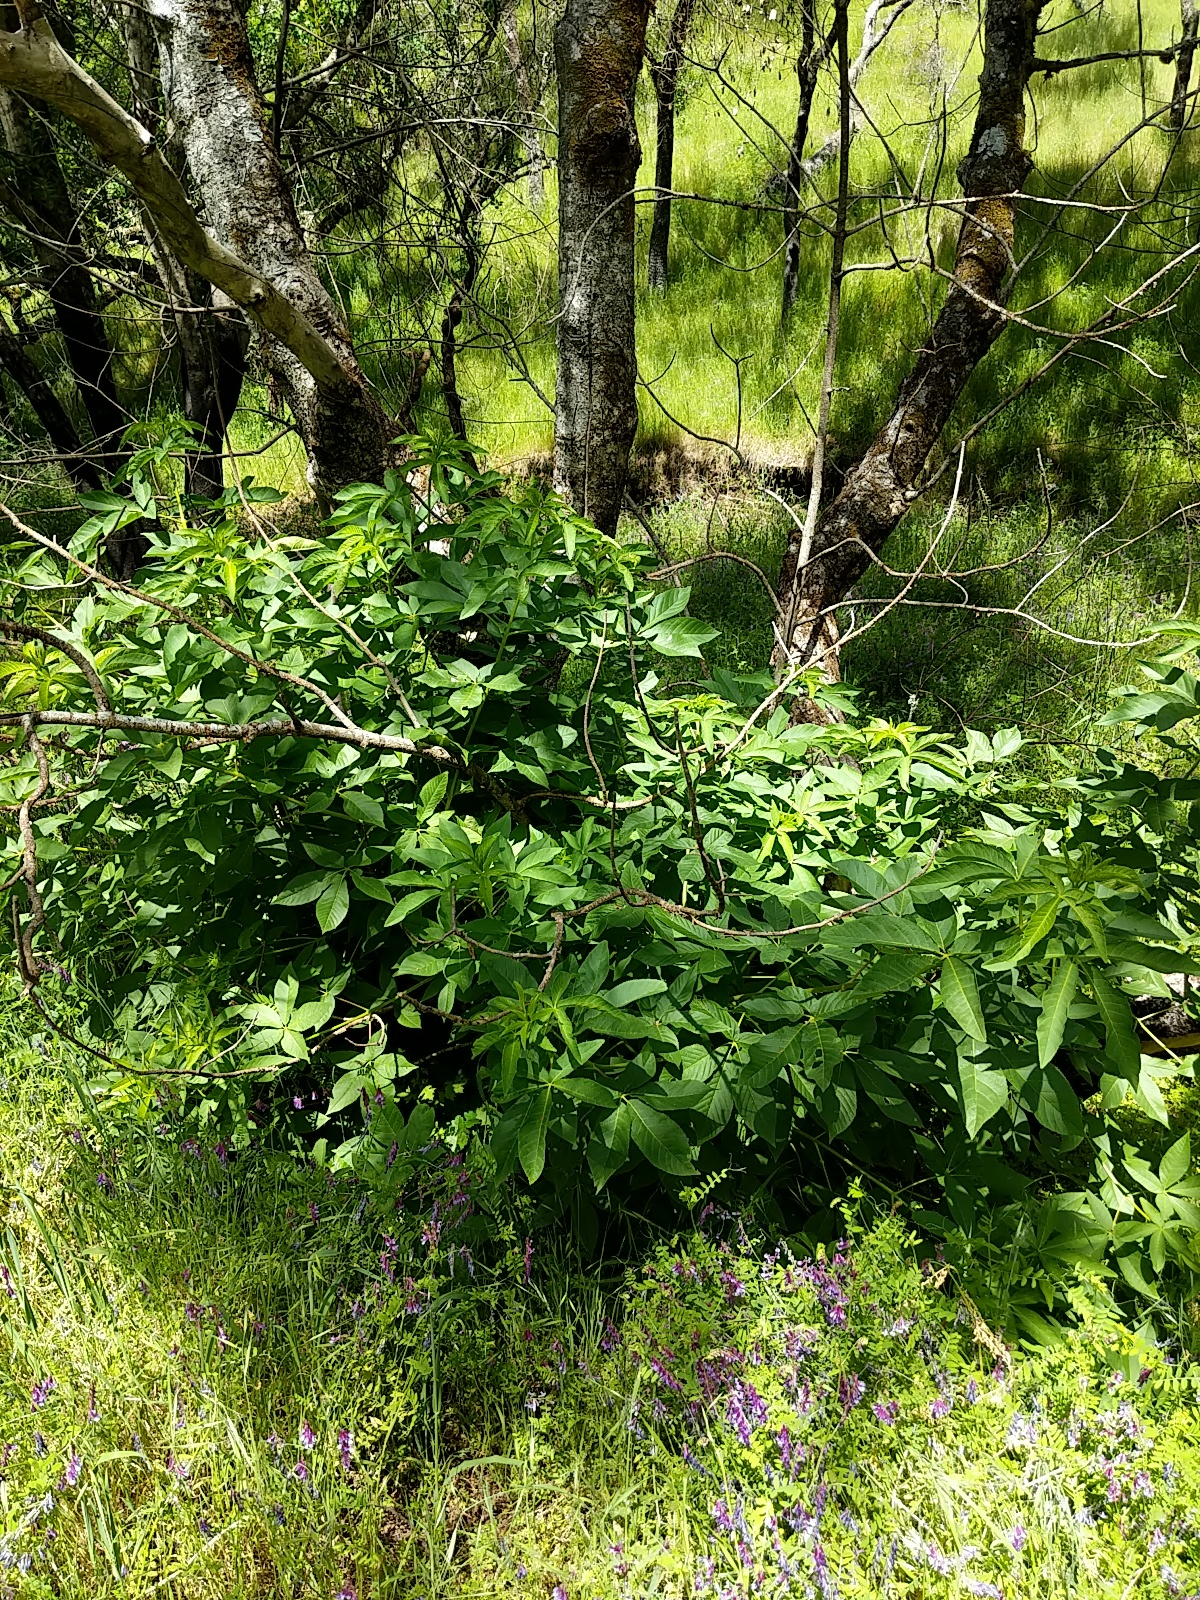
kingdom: Plantae
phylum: Tracheophyta
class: Magnoliopsida
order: Sapindales
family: Sapindaceae
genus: Aesculus
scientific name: Aesculus californica
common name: California buckeye
